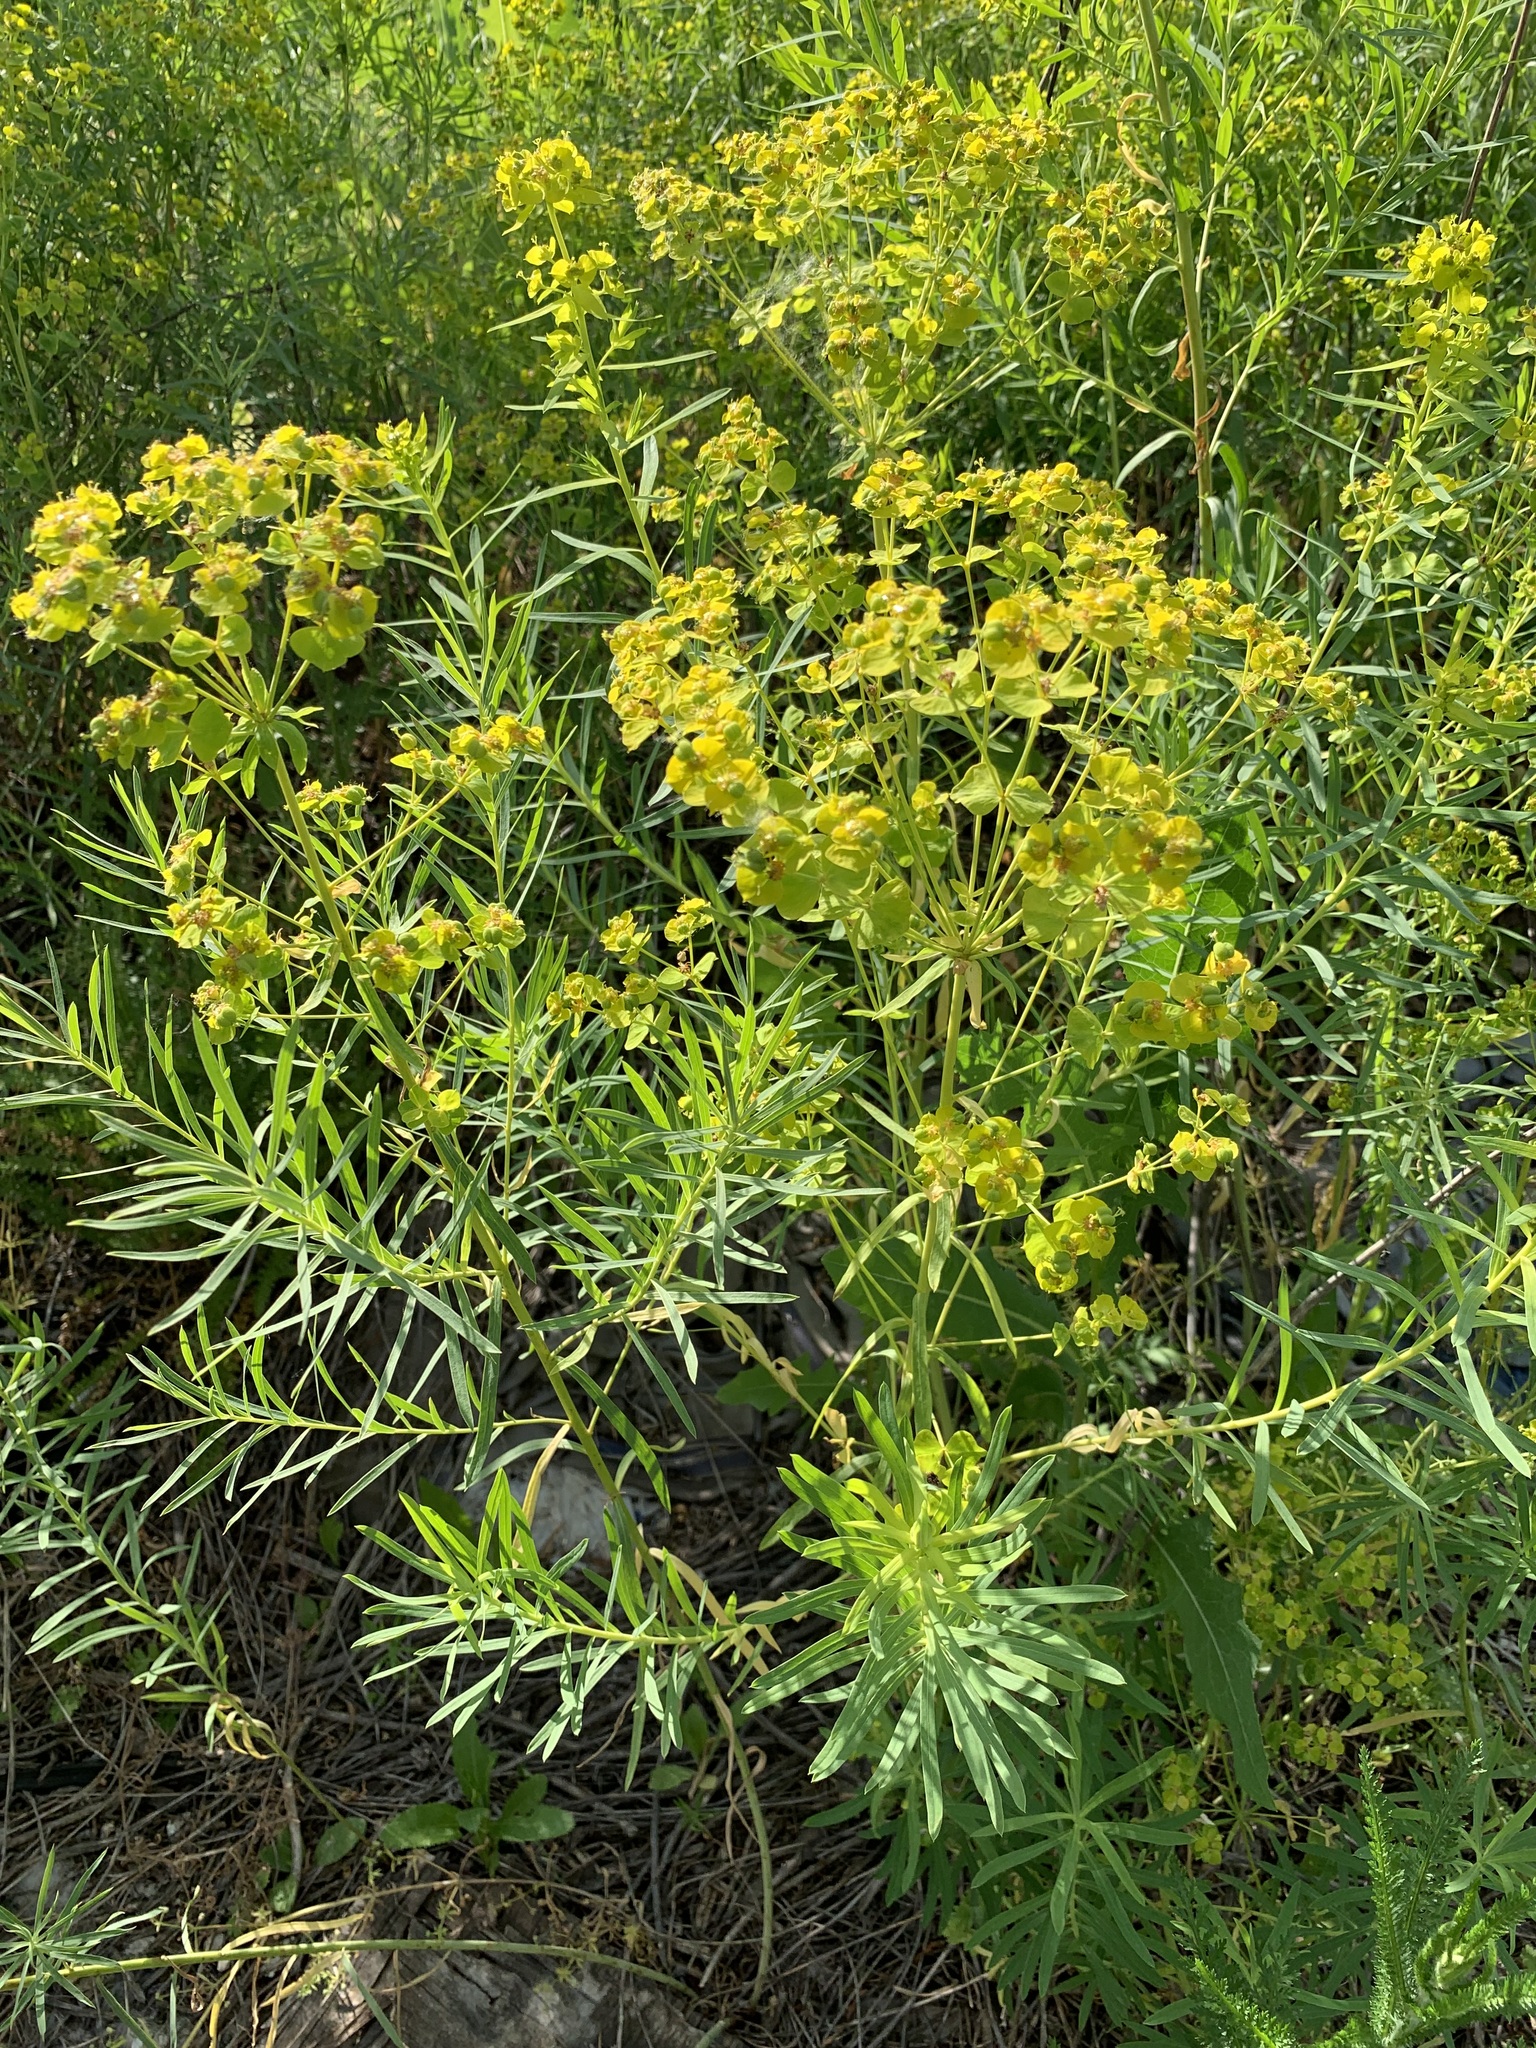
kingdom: Plantae
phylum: Tracheophyta
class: Magnoliopsida
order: Malpighiales
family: Euphorbiaceae
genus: Euphorbia
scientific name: Euphorbia virgata
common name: Leafy spurge
